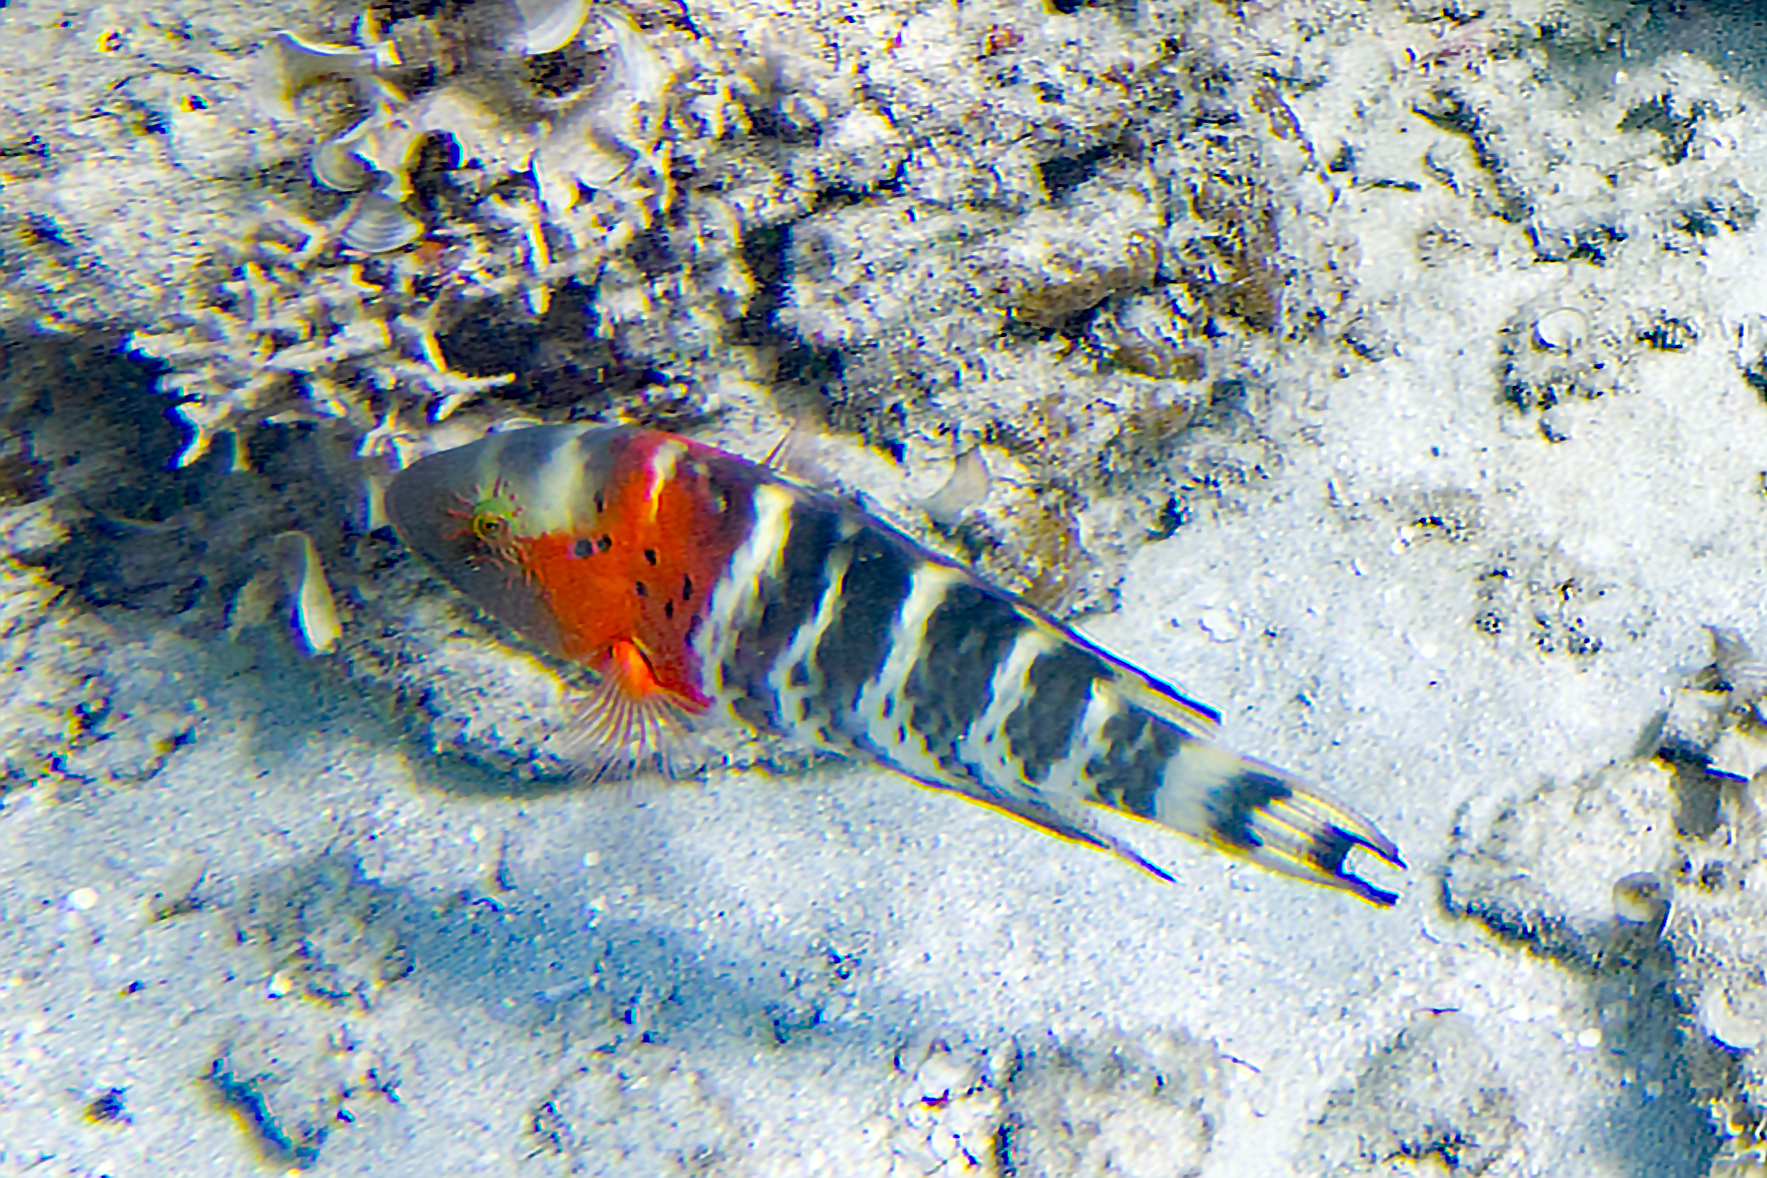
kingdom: Animalia
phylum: Chordata
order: Perciformes
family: Labridae
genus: Cheilinus
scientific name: Cheilinus fasciatus
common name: Red-breasted wrasse
